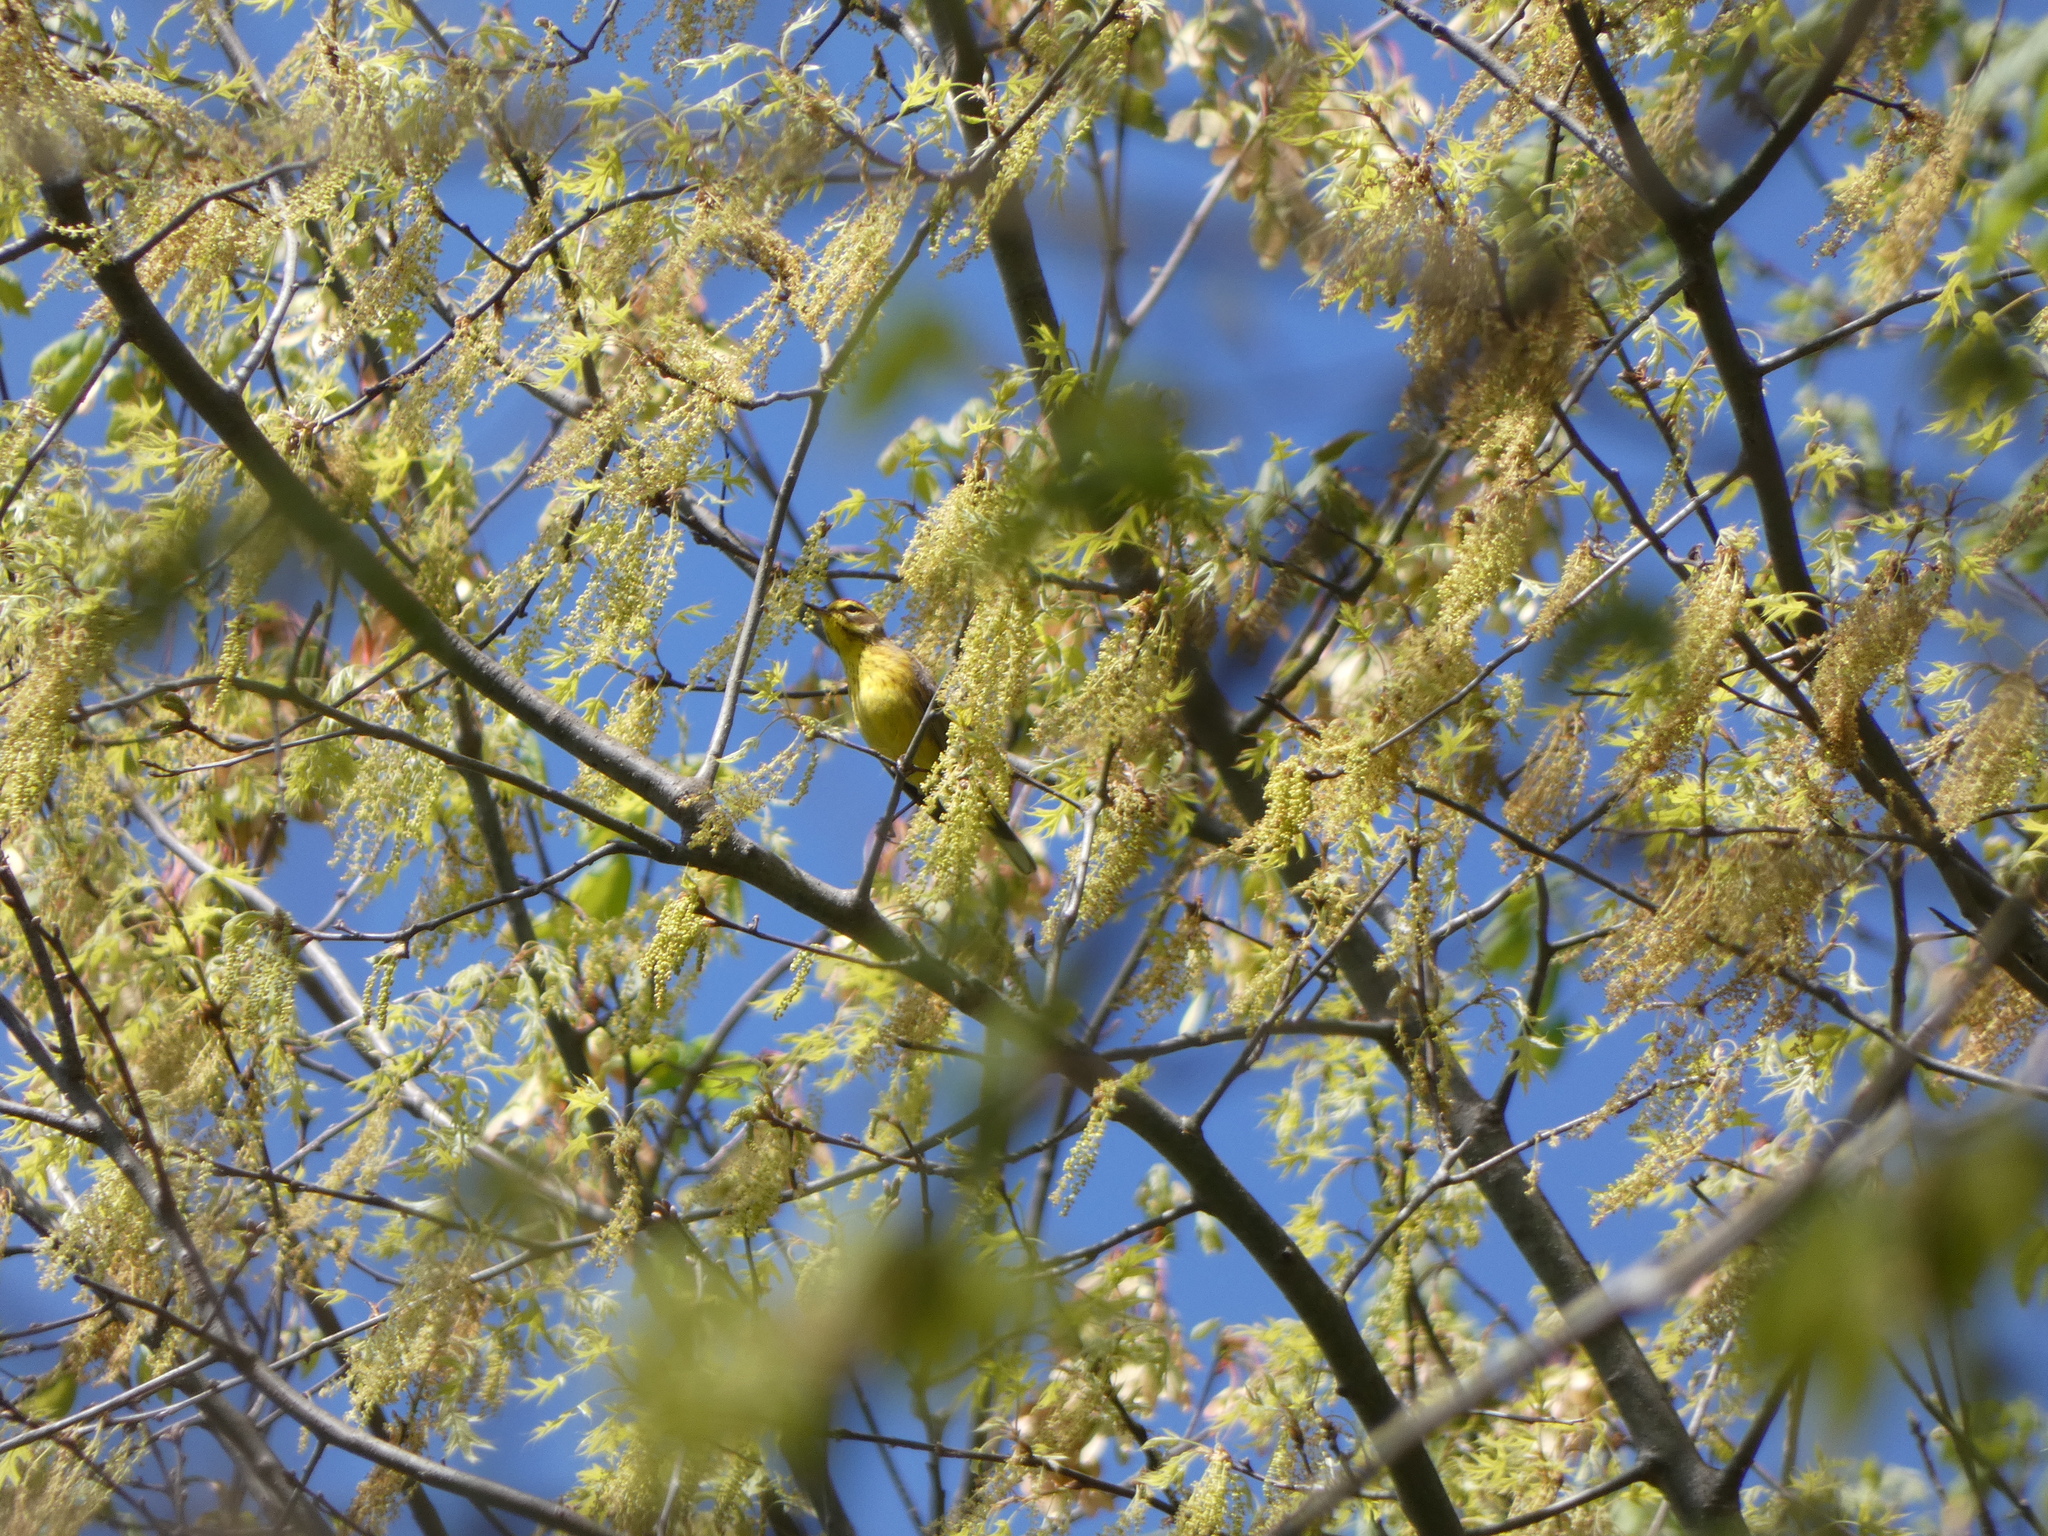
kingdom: Animalia
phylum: Chordata
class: Aves
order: Passeriformes
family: Parulidae
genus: Setophaga
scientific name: Setophaga palmarum
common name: Palm warbler
